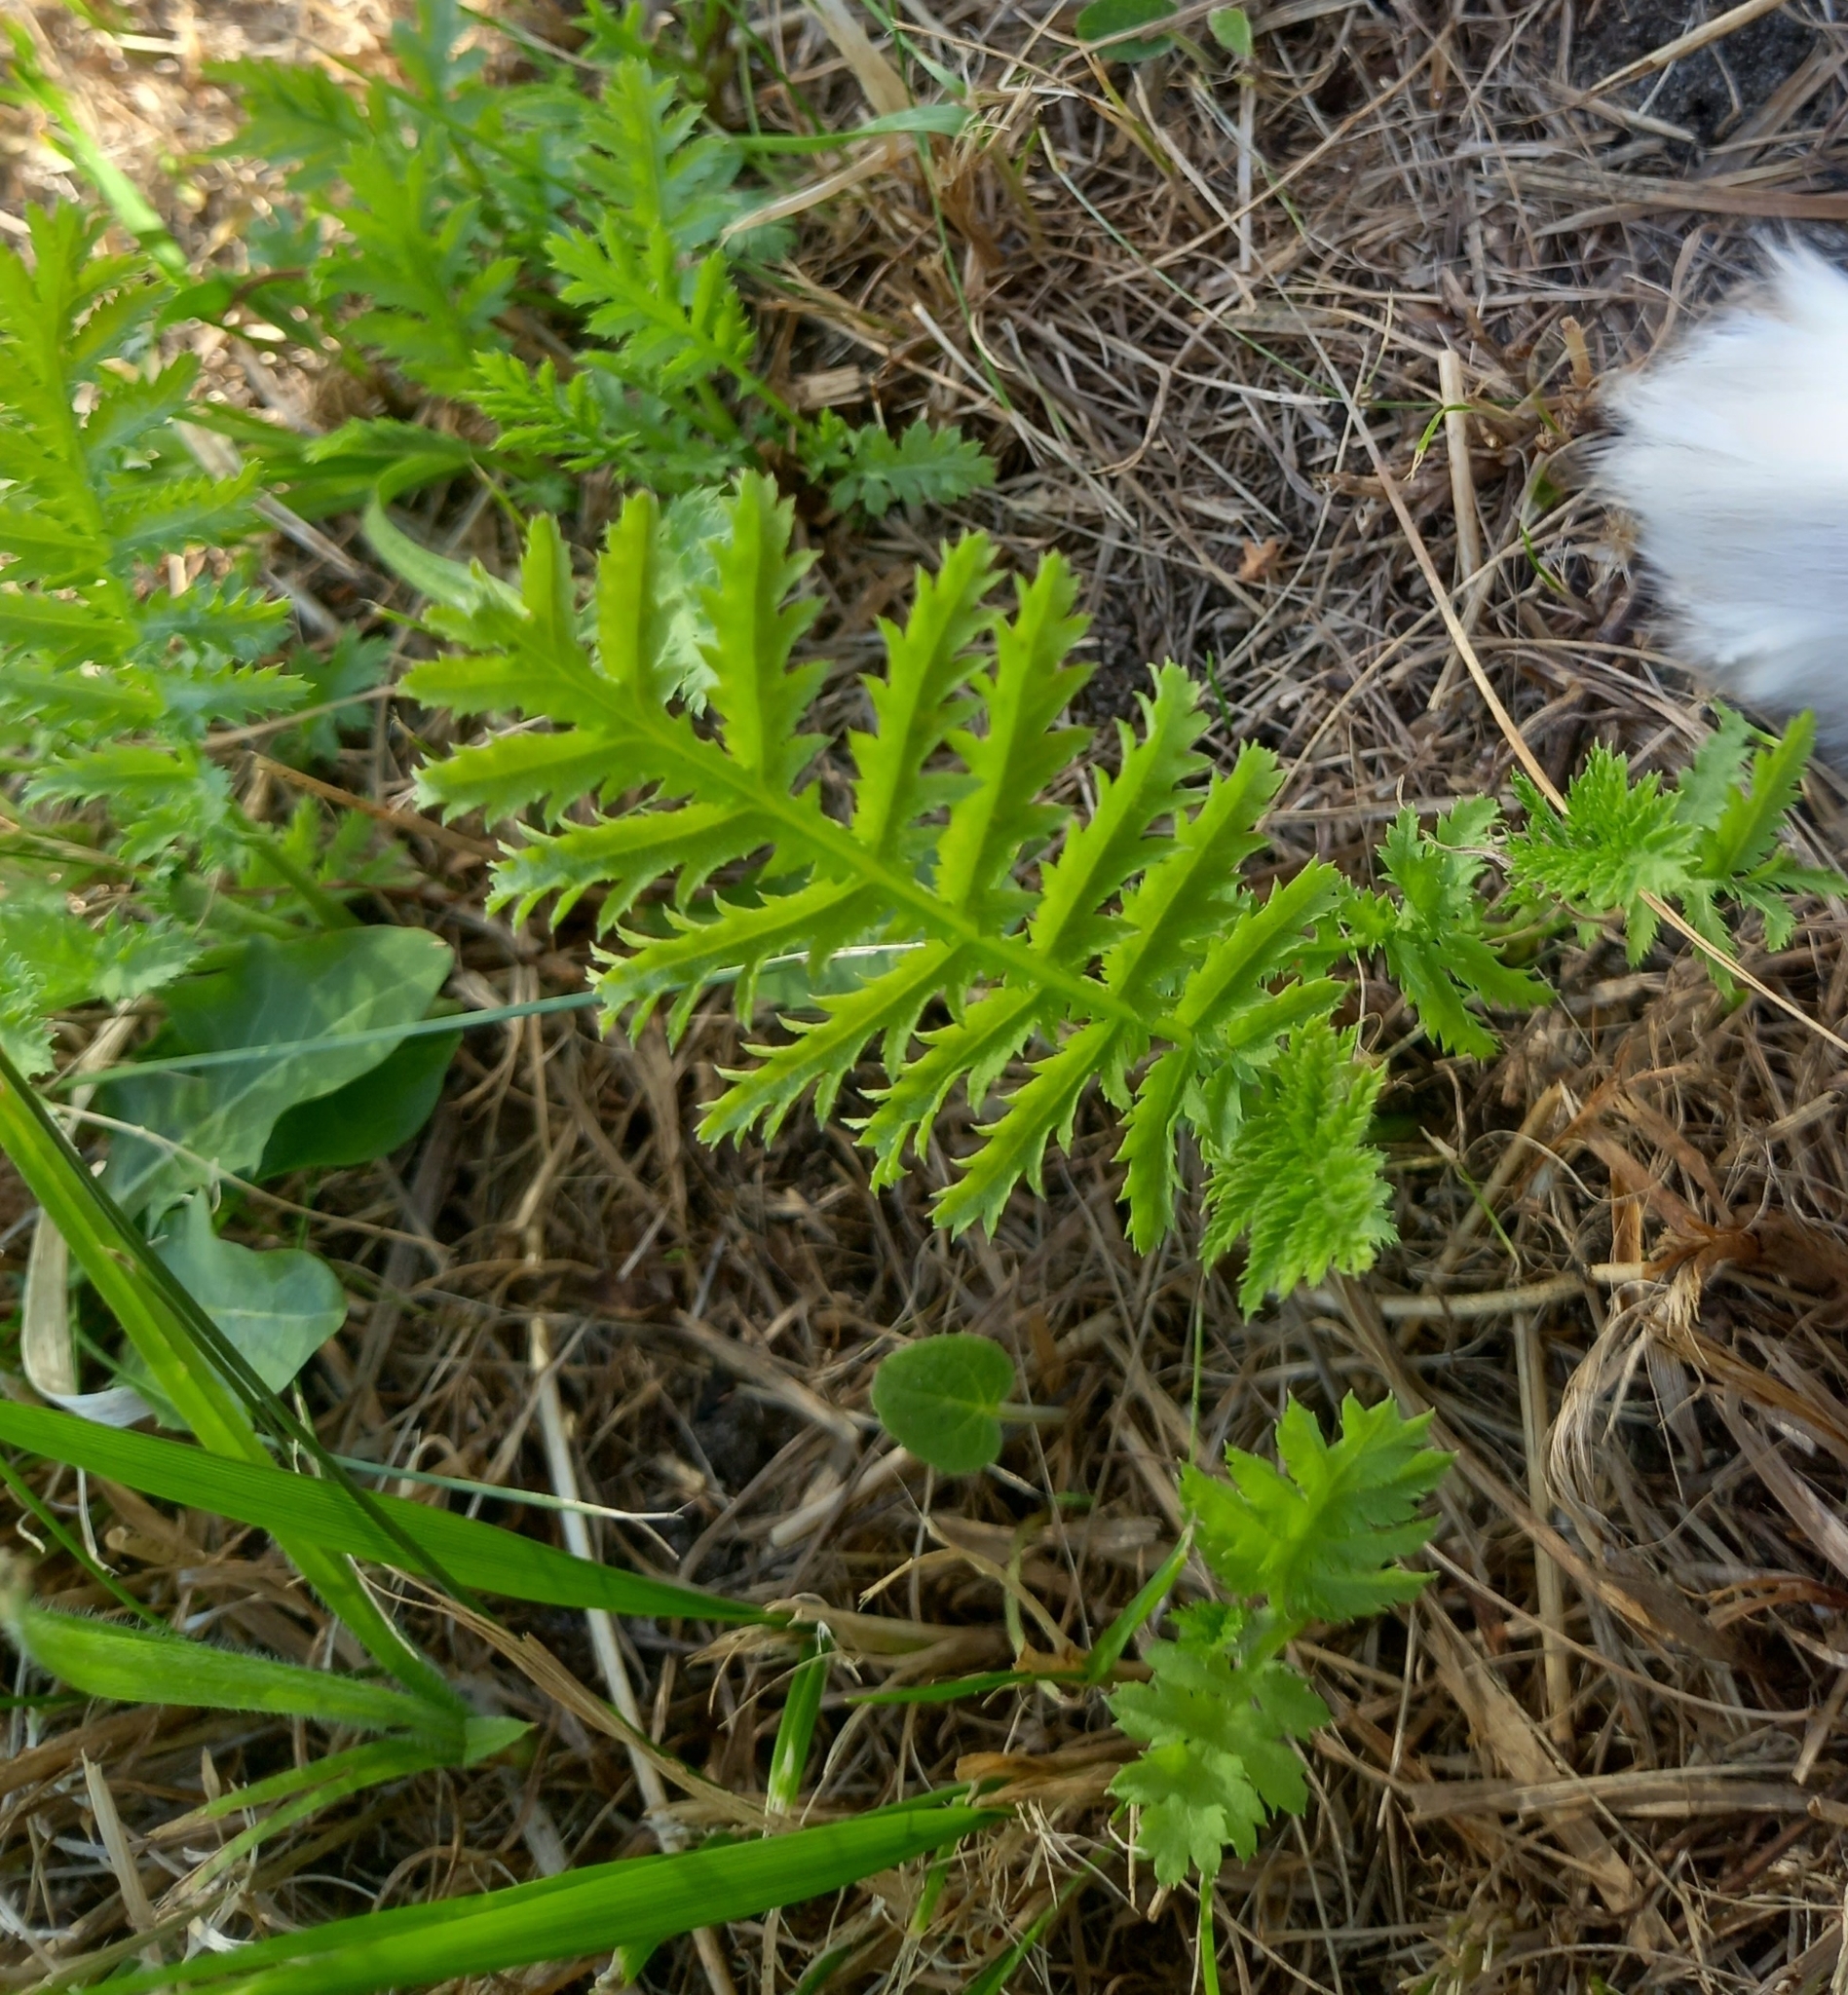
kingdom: Plantae
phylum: Tracheophyta
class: Magnoliopsida
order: Asterales
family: Asteraceae
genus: Tanacetum
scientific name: Tanacetum vulgare
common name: Common tansy
